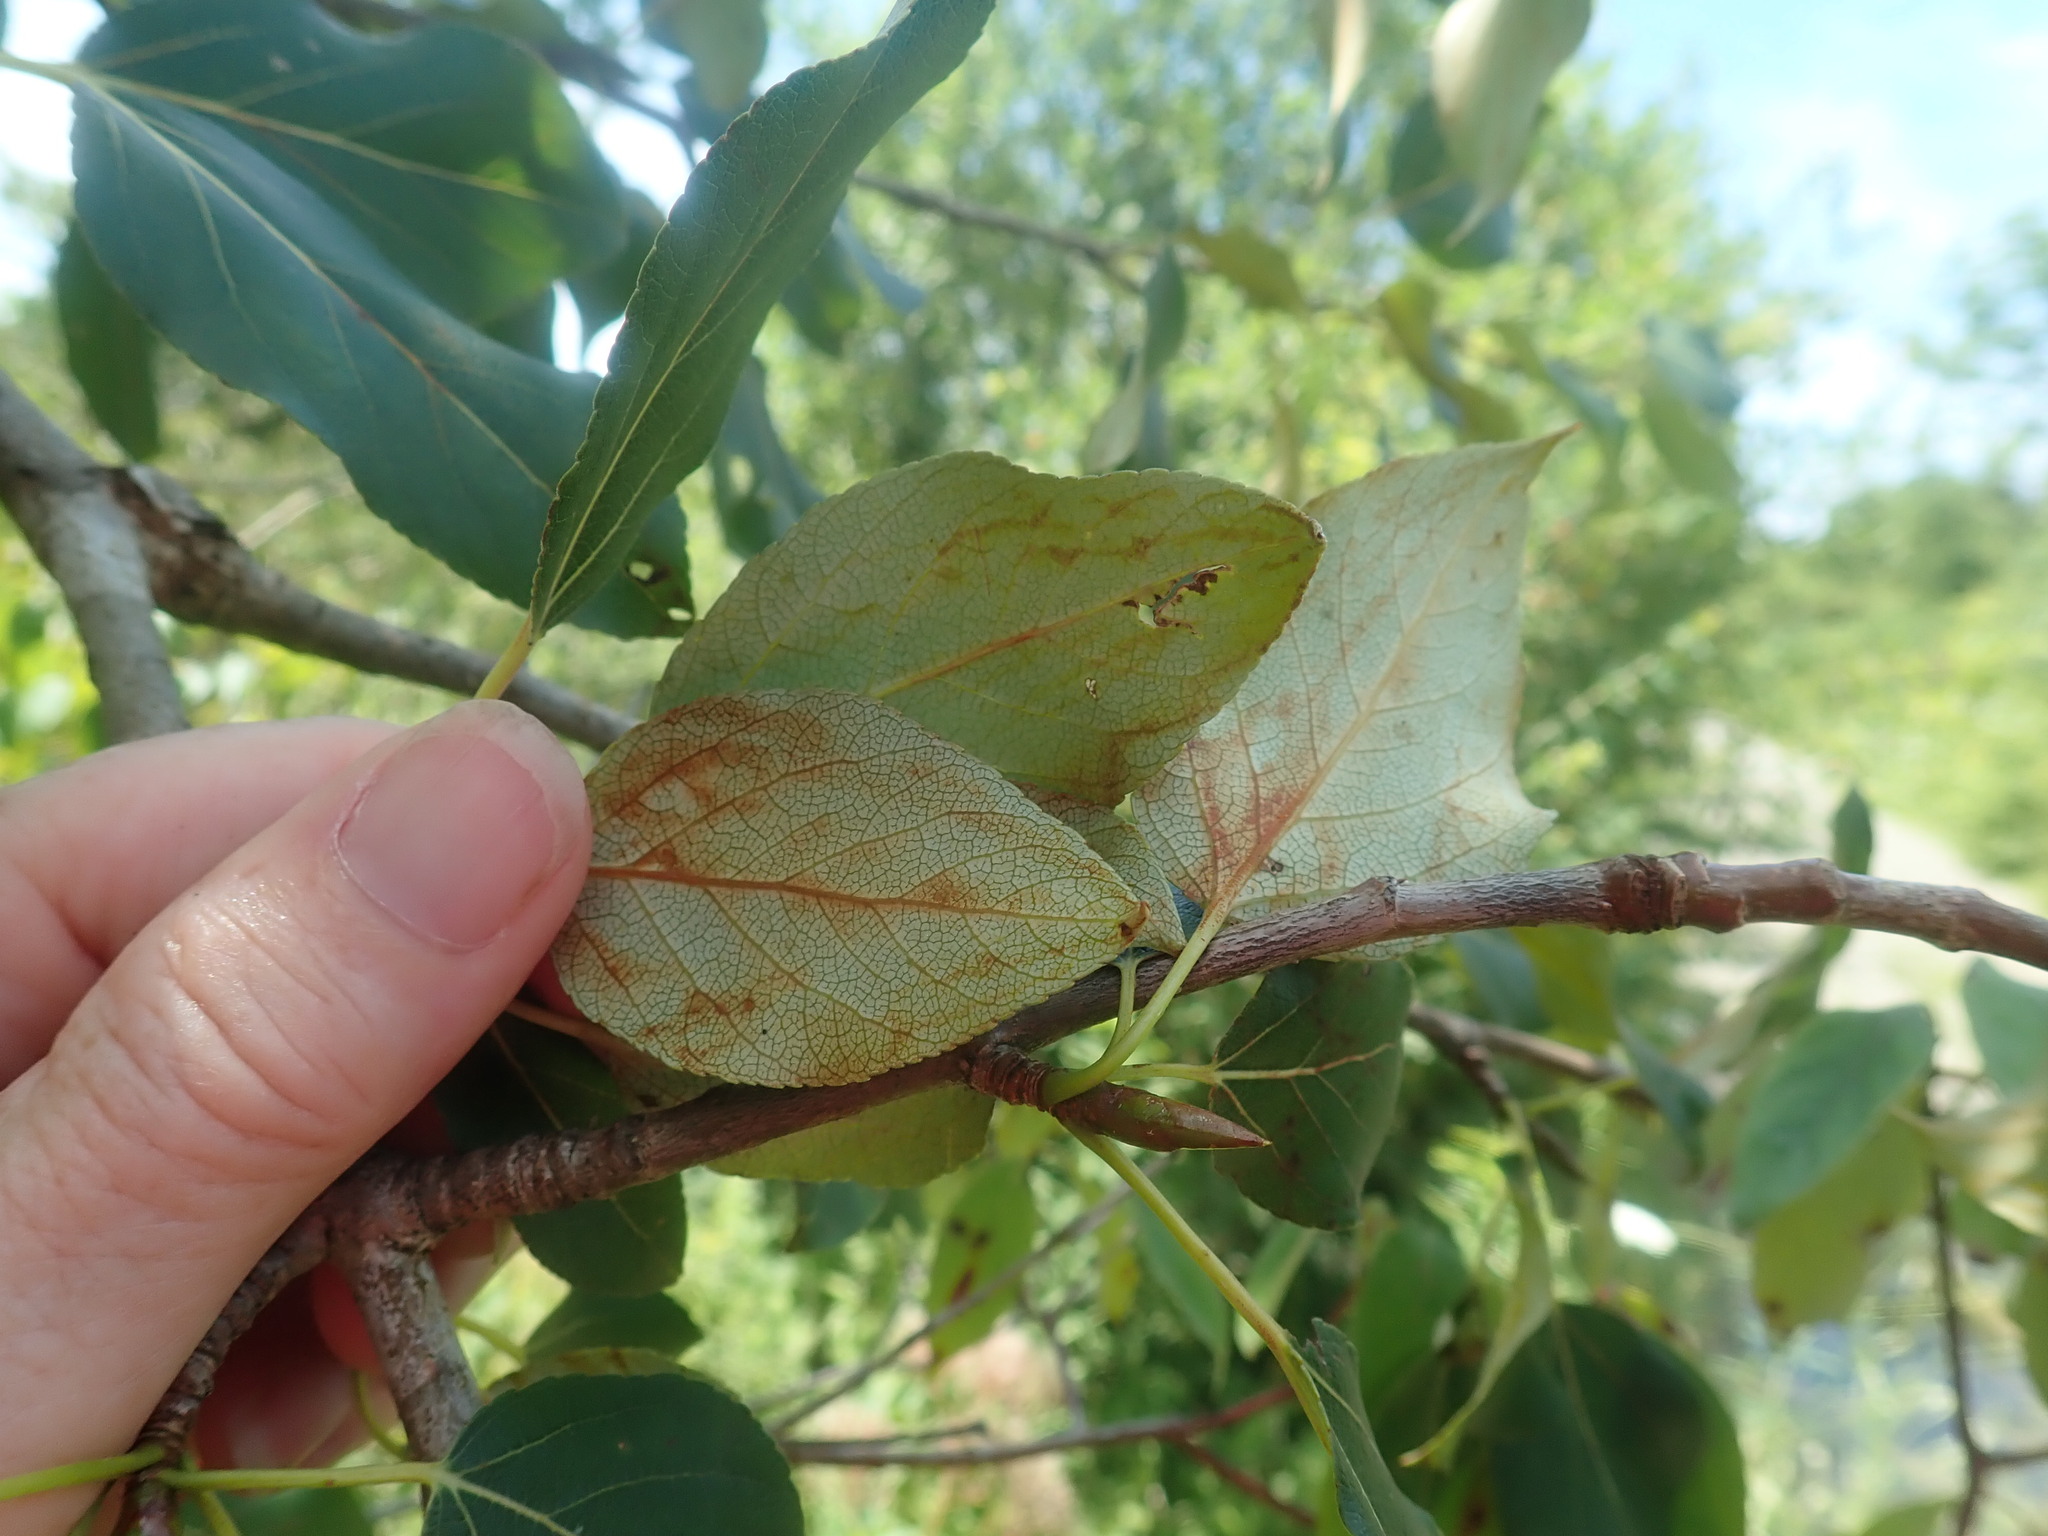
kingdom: Plantae
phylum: Tracheophyta
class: Magnoliopsida
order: Malpighiales
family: Salicaceae
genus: Populus
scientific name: Populus balsamifera
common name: Balsam poplar
